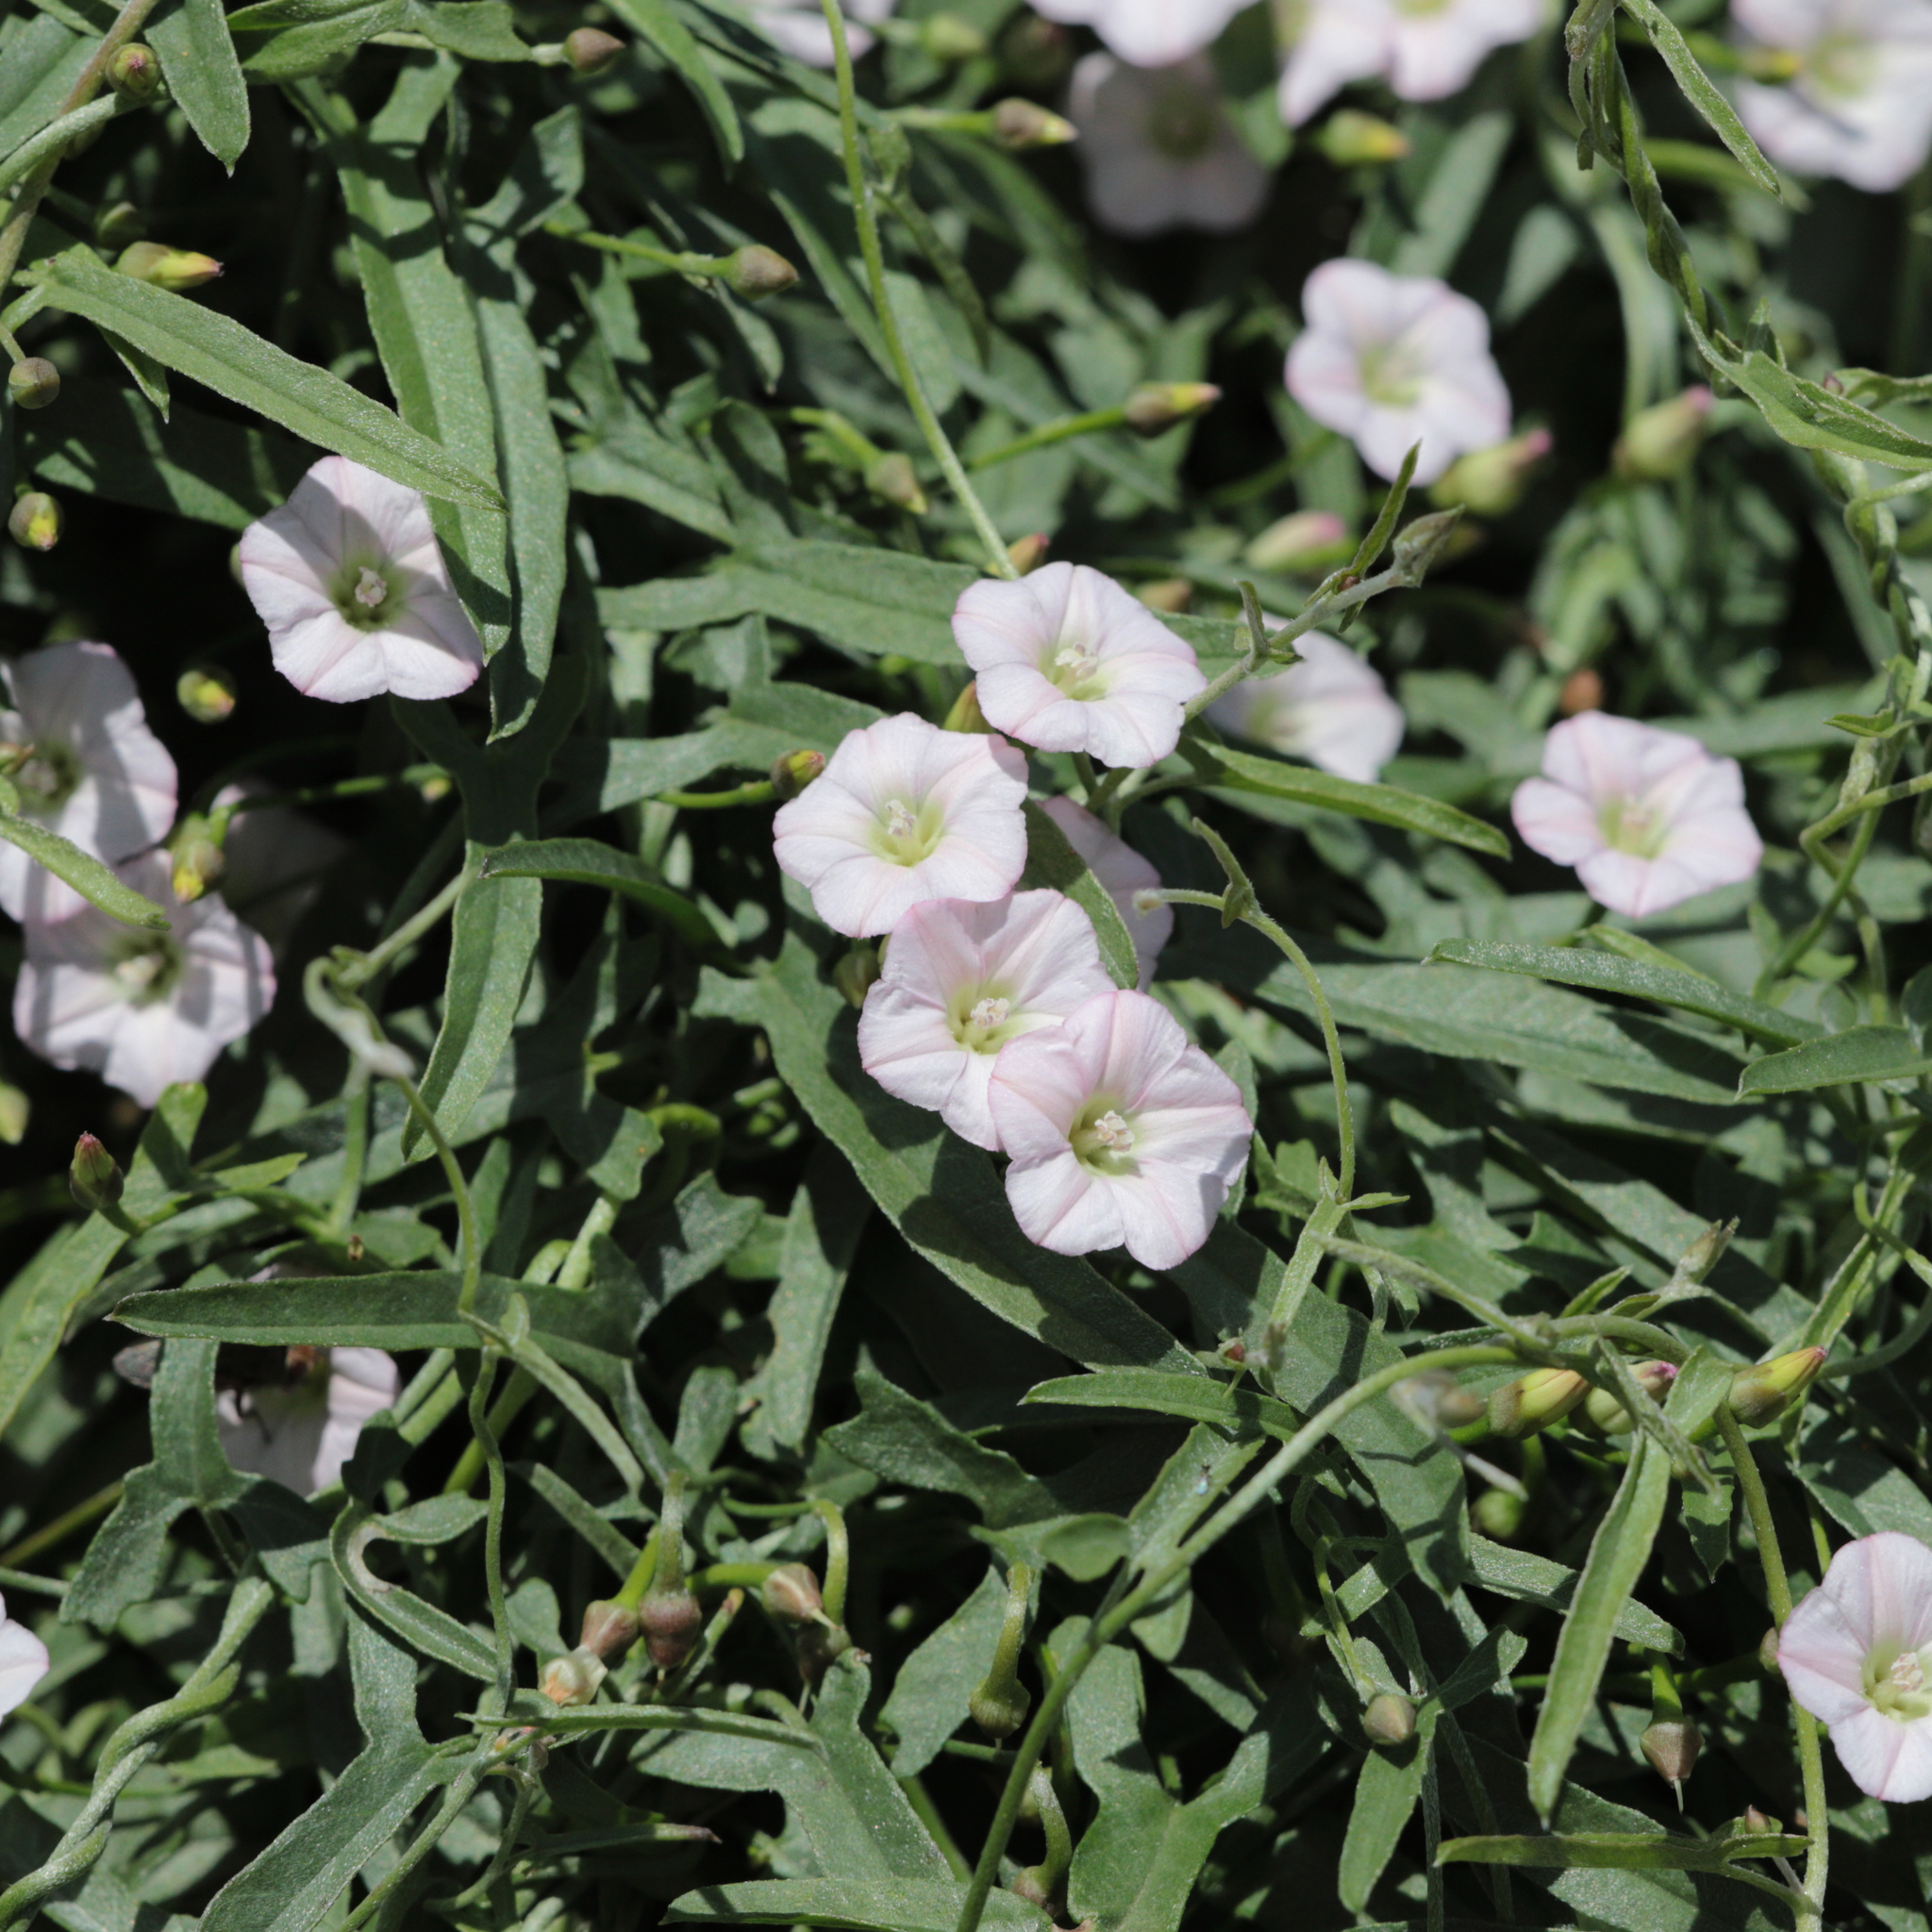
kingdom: Plantae
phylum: Tracheophyta
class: Magnoliopsida
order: Solanales
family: Convolvulaceae
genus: Convolvulus
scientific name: Convolvulus remotus
